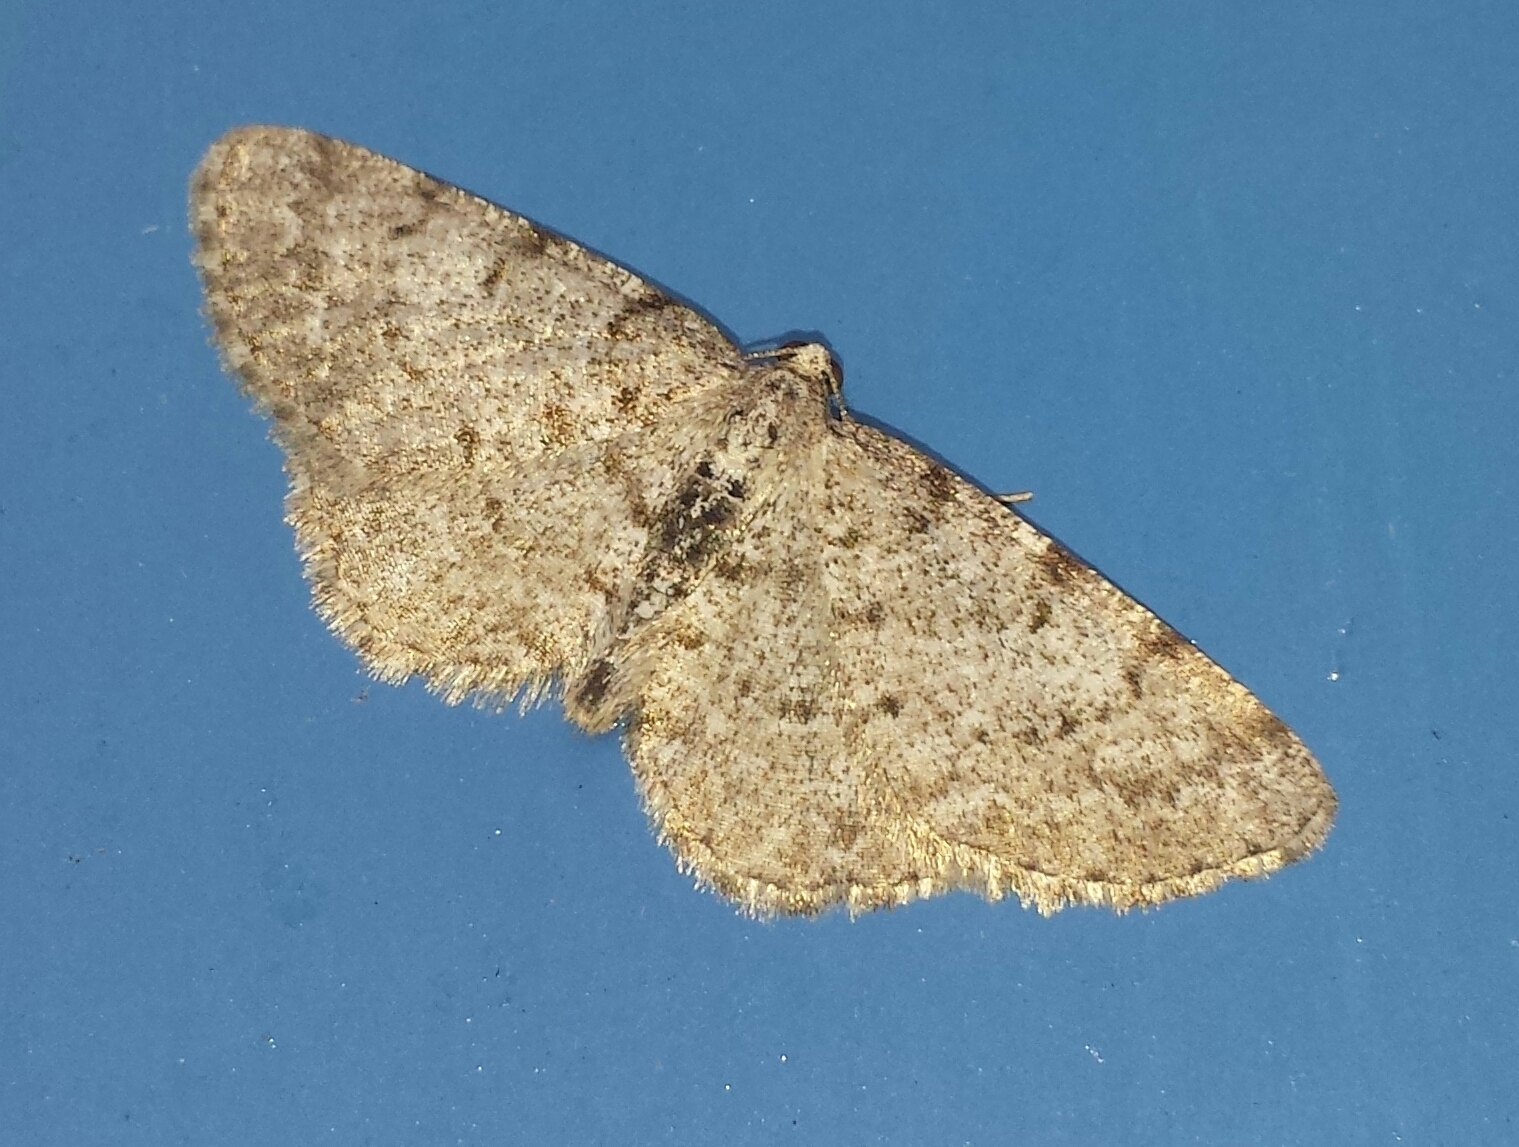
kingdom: Animalia
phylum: Arthropoda
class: Insecta
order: Lepidoptera
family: Geometridae
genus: Aethalura
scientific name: Aethalura intertexta
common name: Four-barred gray
